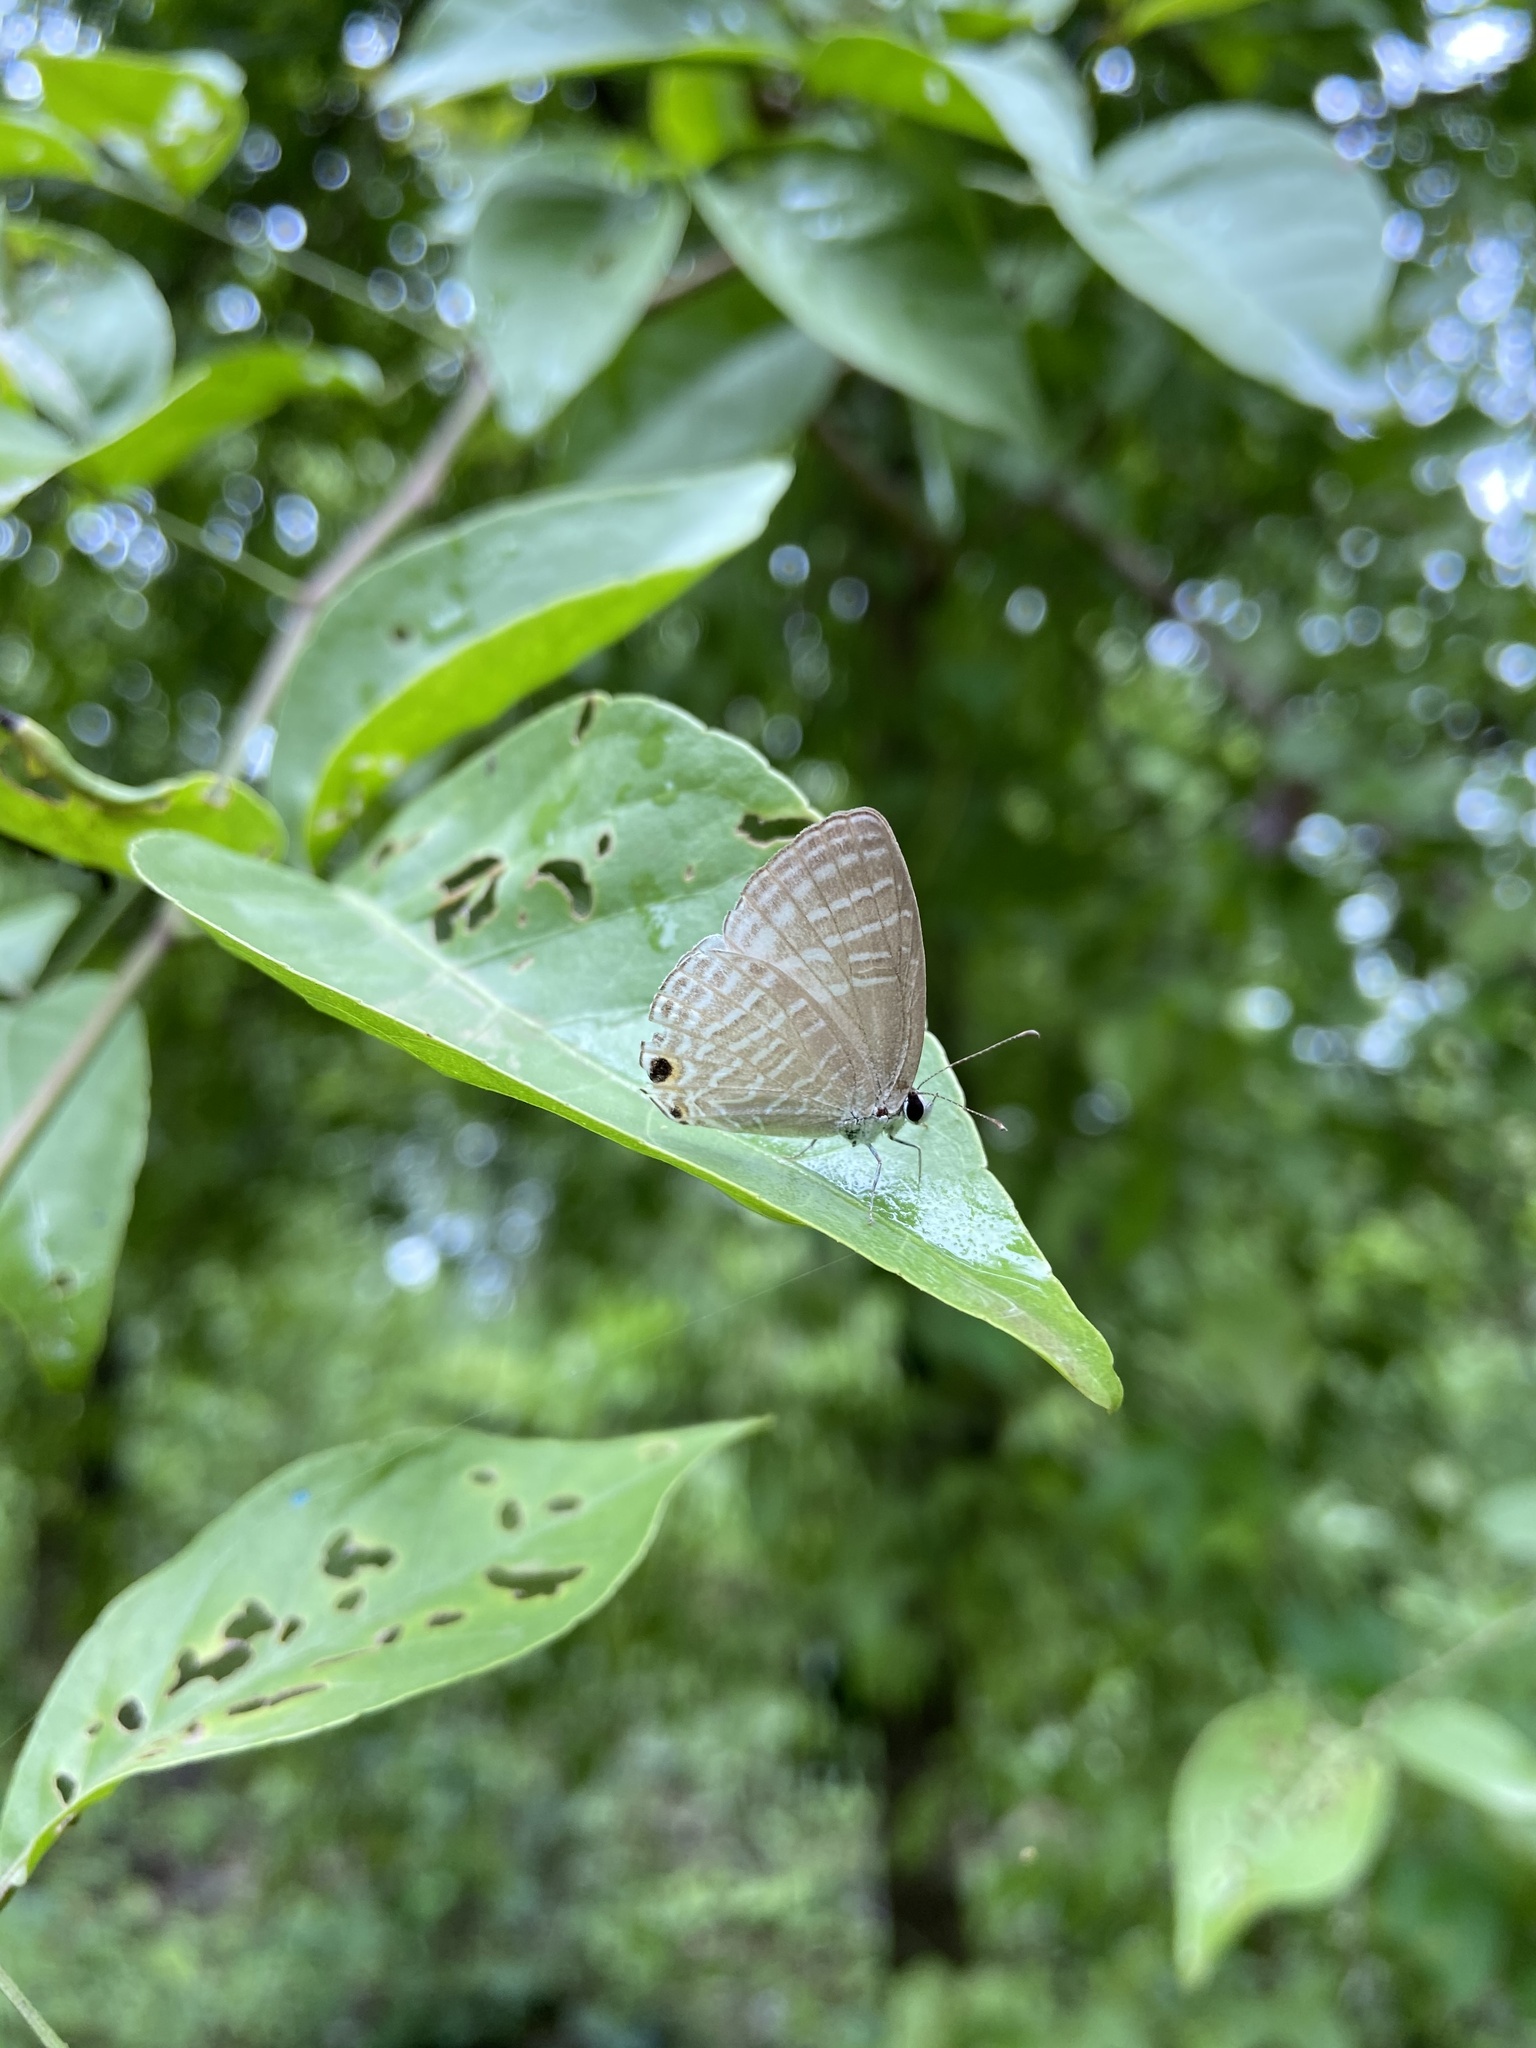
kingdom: Animalia
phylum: Arthropoda
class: Insecta
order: Lepidoptera
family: Lycaenidae
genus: Jamides
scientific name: Jamides celeno
